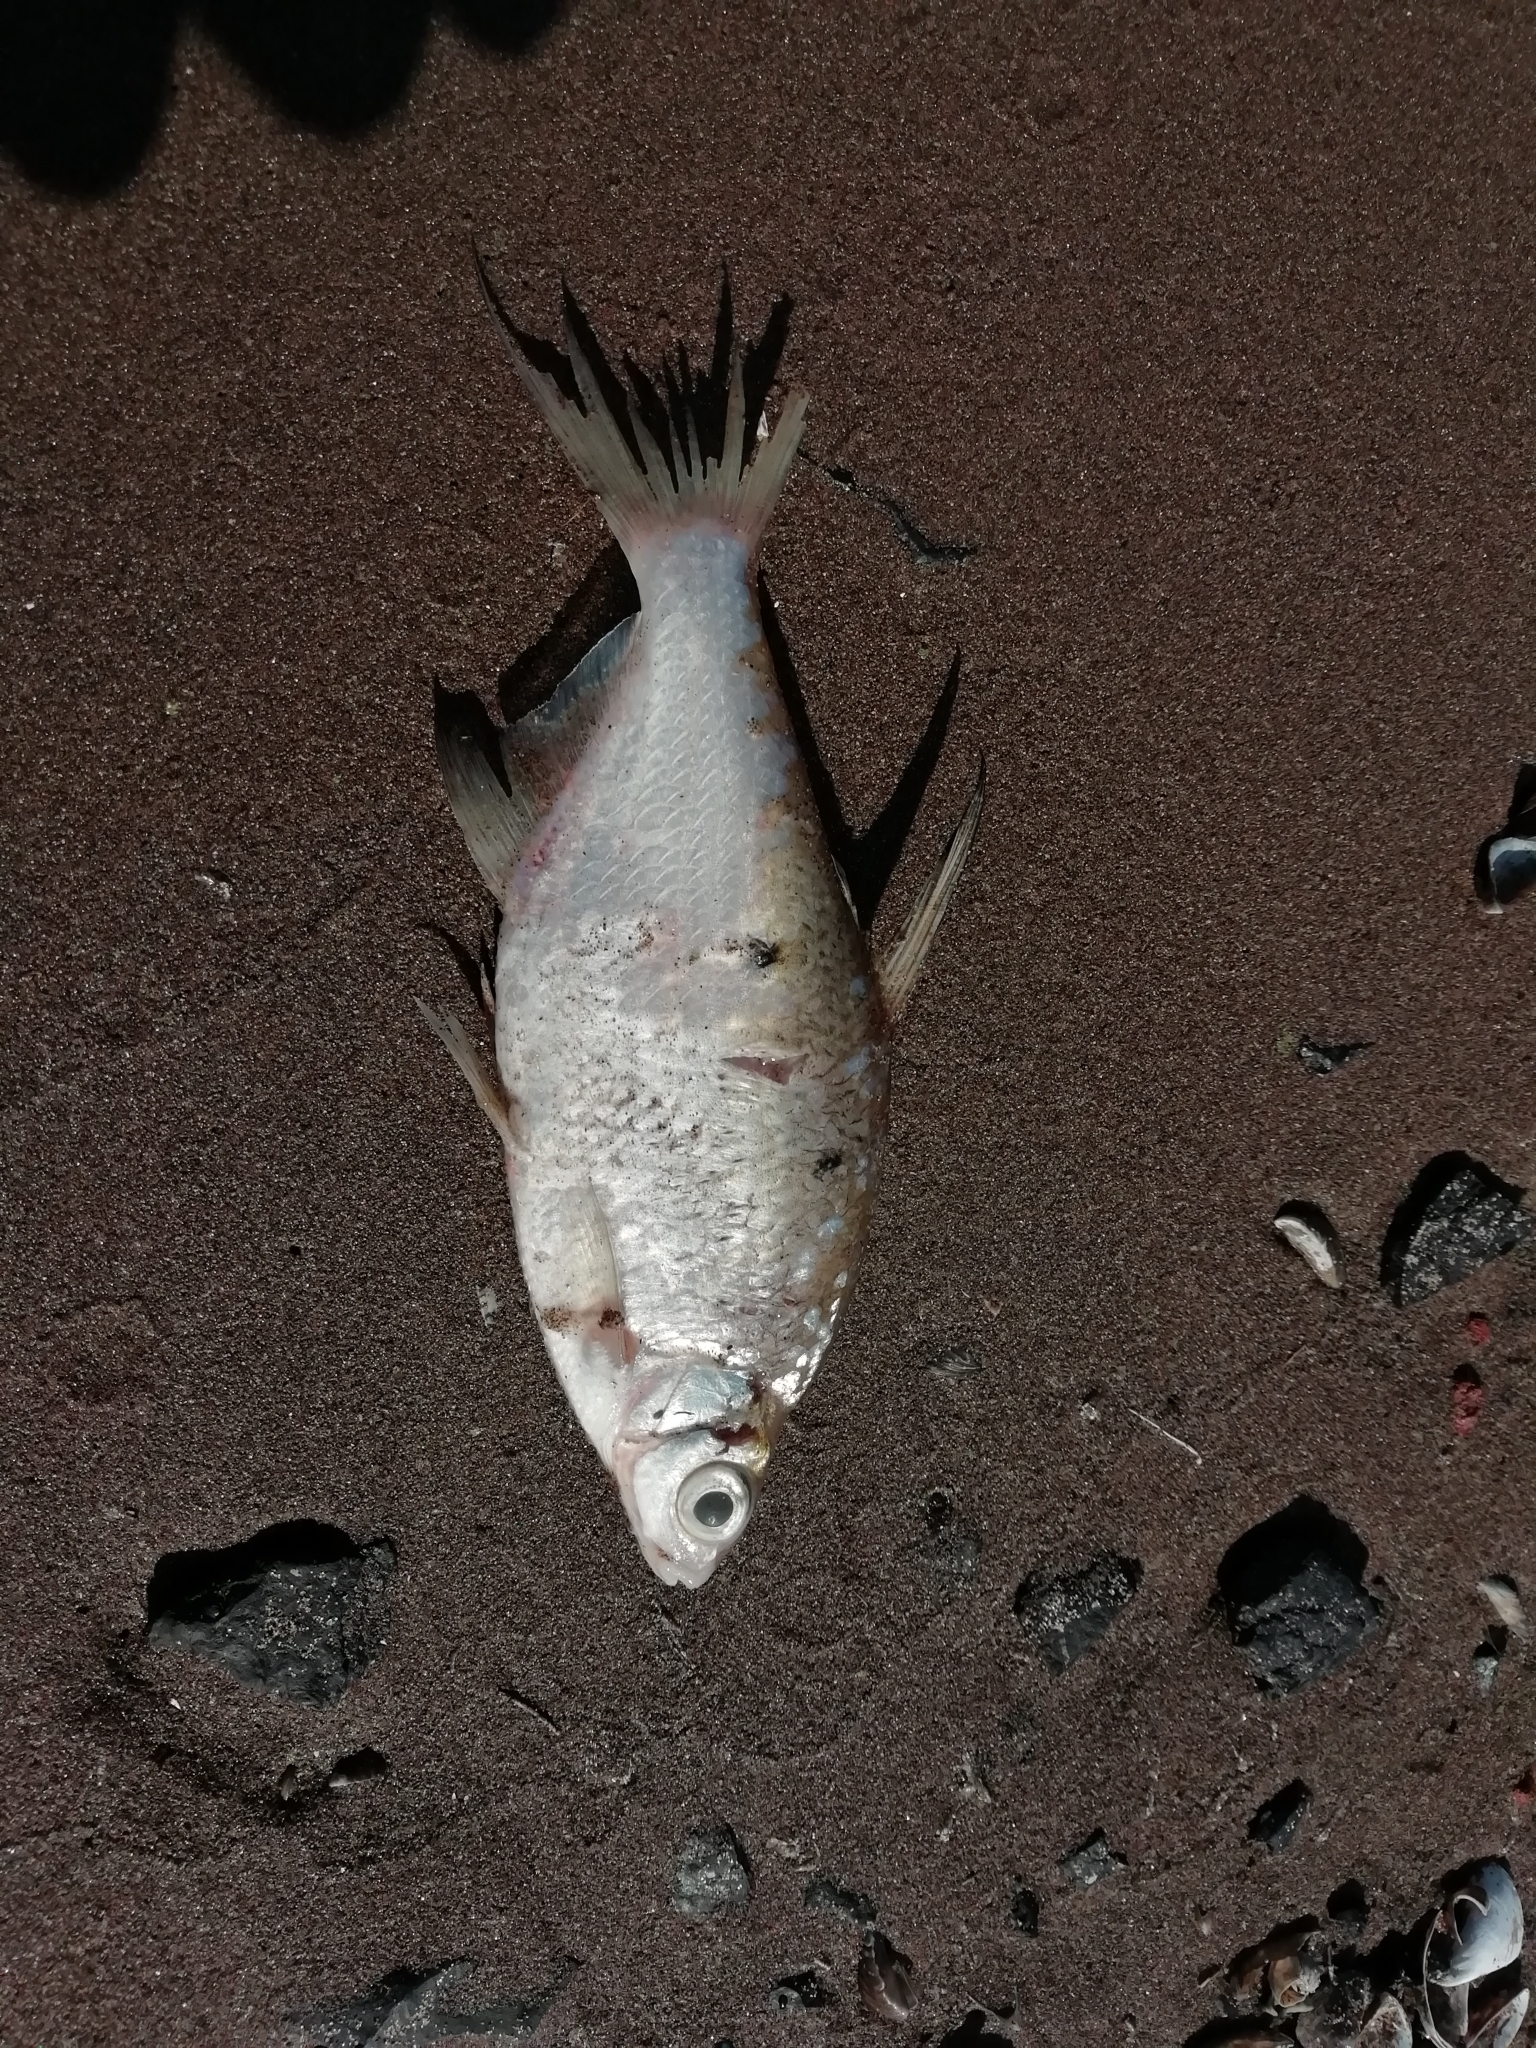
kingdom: Animalia
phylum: Chordata
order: Cypriniformes
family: Cyprinidae
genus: Blicca
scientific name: Blicca bjoerkna
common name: White bream
